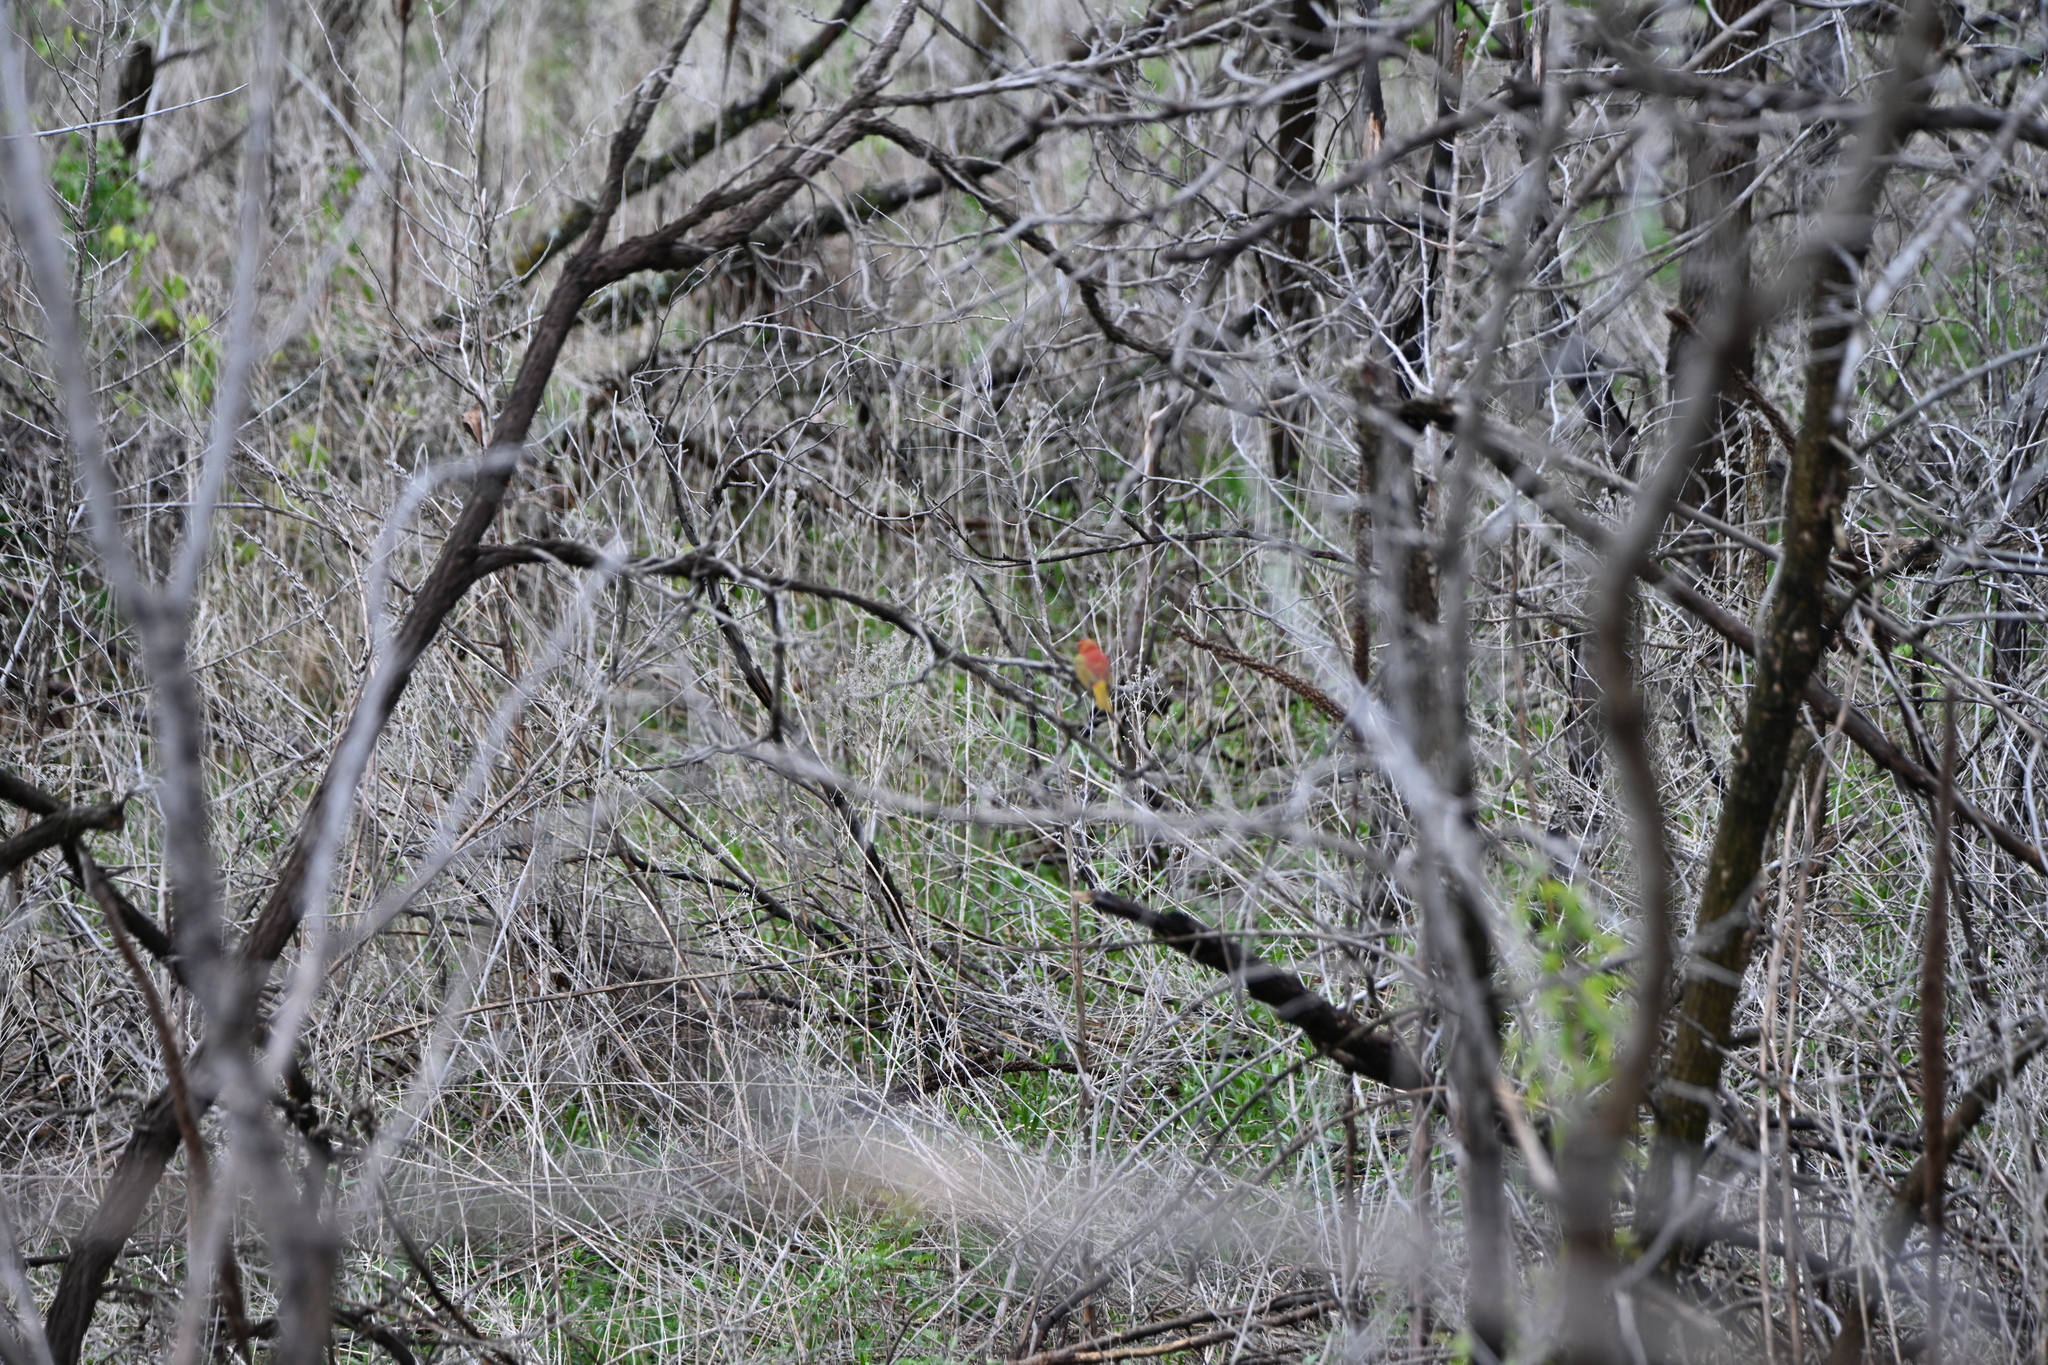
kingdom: Animalia
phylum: Chordata
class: Aves
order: Passeriformes
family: Cardinalidae
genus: Piranga
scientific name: Piranga rubra
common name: Summer tanager
